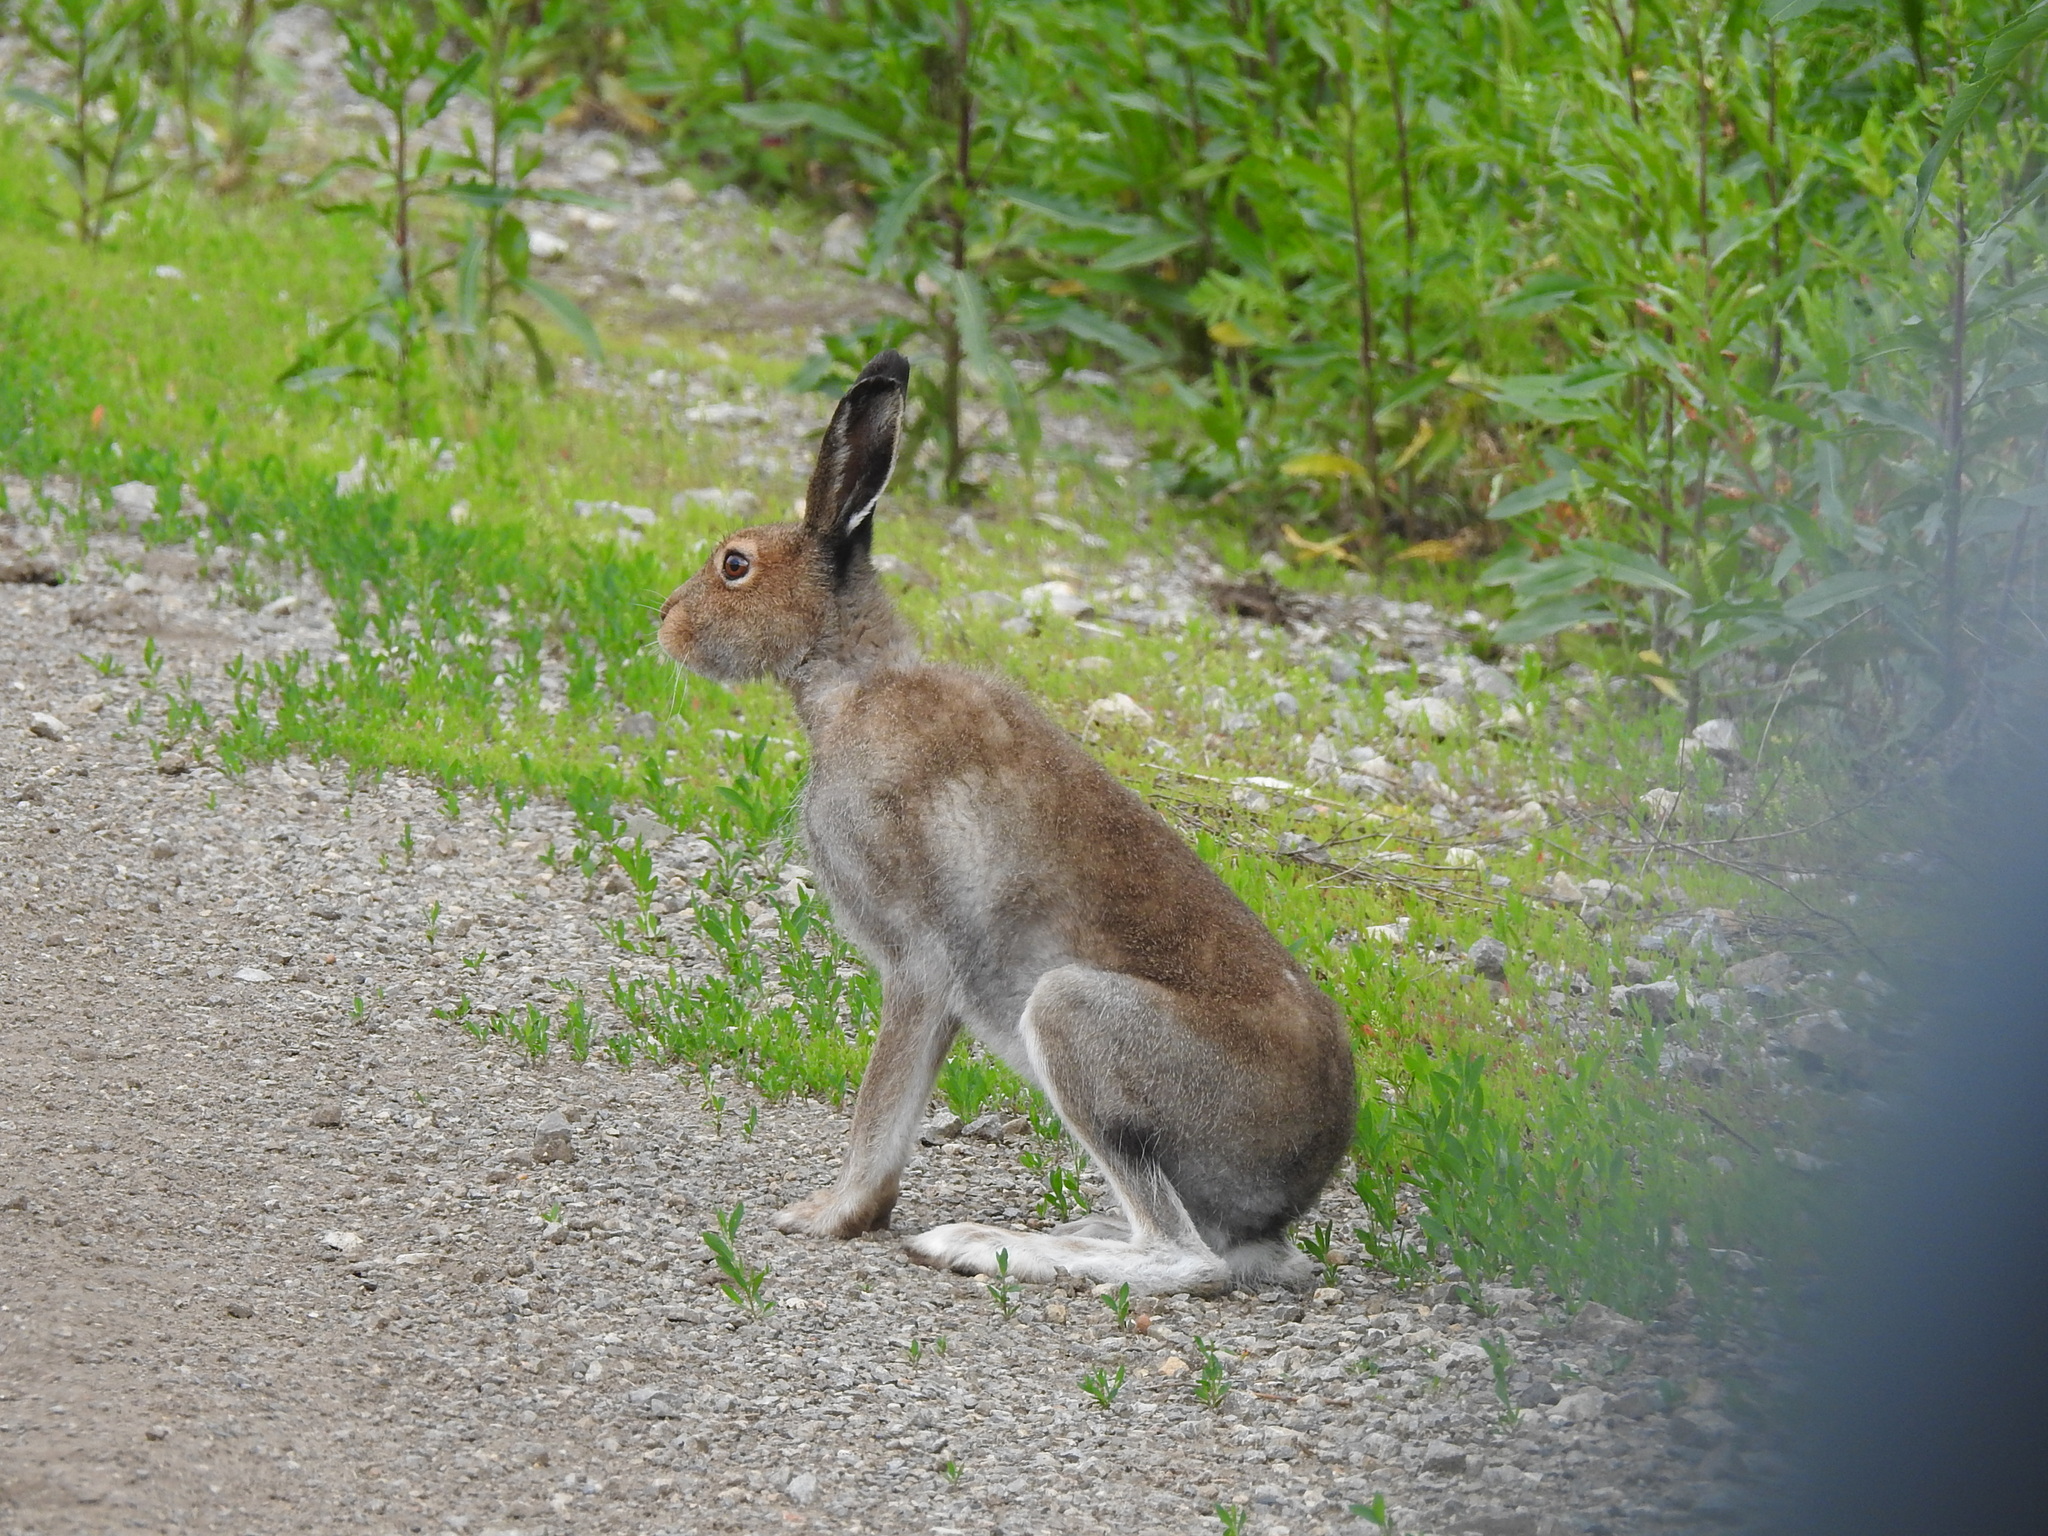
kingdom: Animalia
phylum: Chordata
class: Mammalia
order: Lagomorpha
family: Leporidae
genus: Lepus
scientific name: Lepus timidus
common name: Mountain hare
